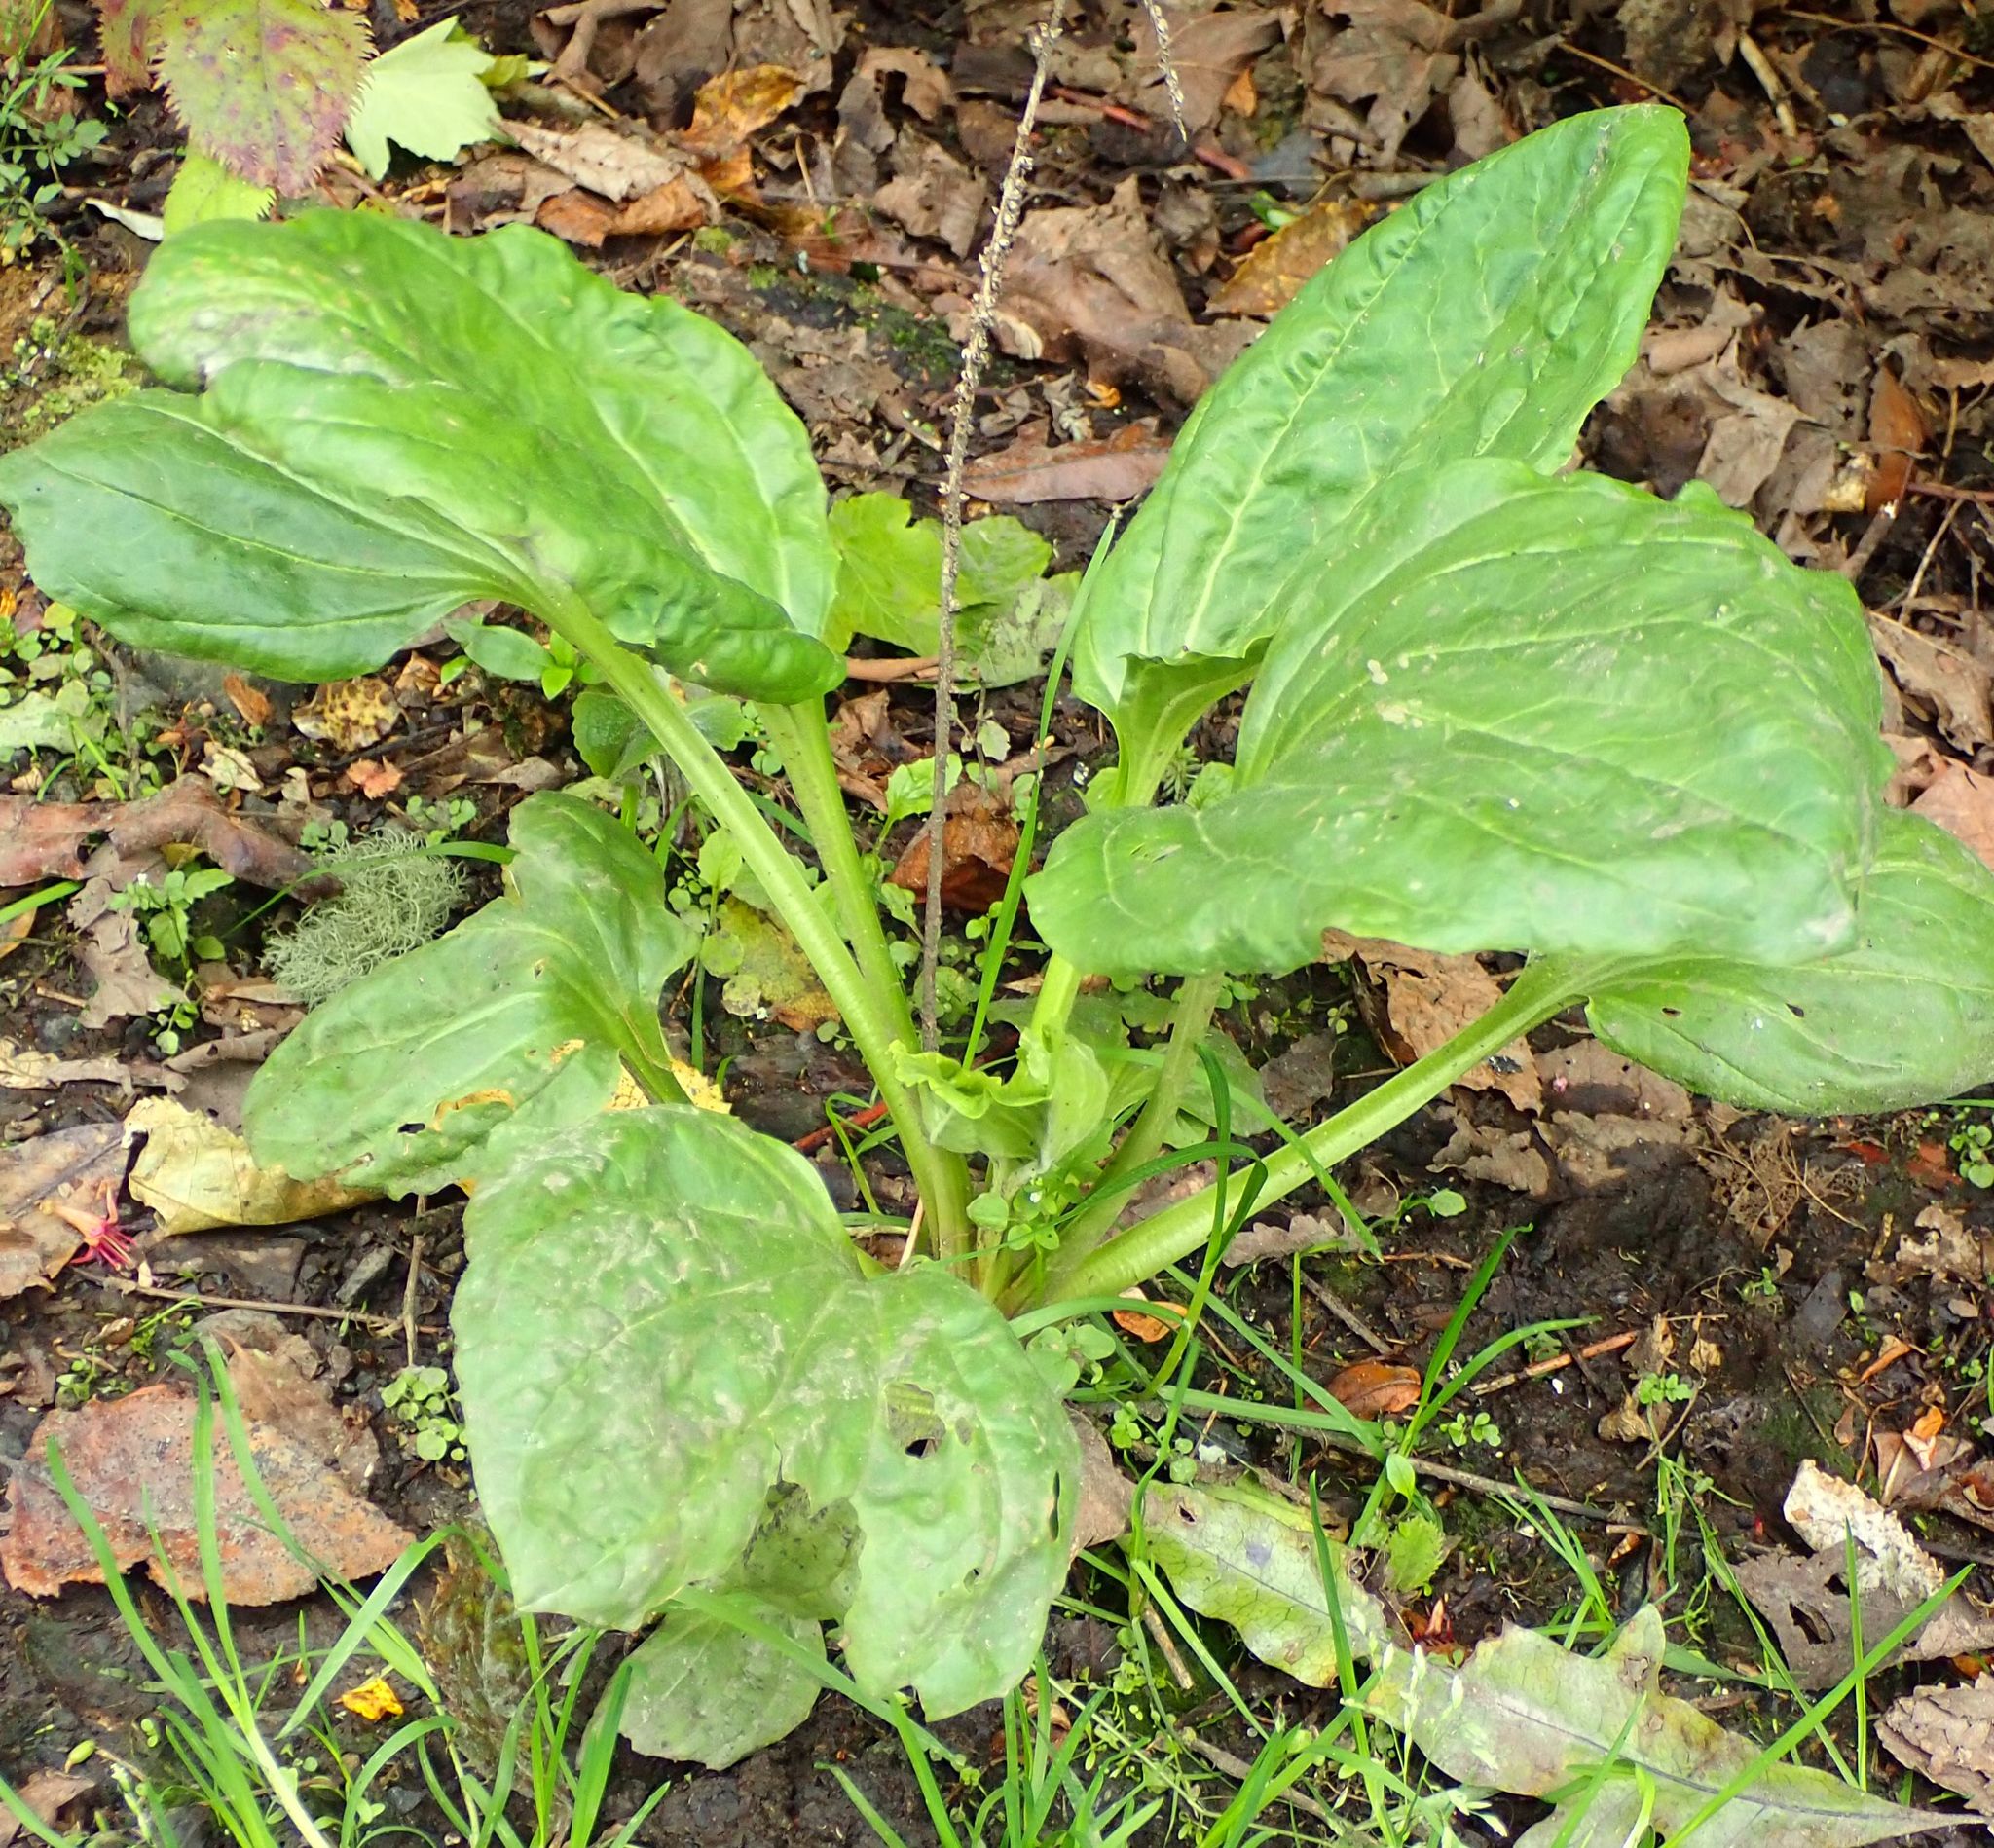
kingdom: Plantae
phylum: Tracheophyta
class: Magnoliopsida
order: Lamiales
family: Plantaginaceae
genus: Plantago
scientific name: Plantago major
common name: Common plantain
